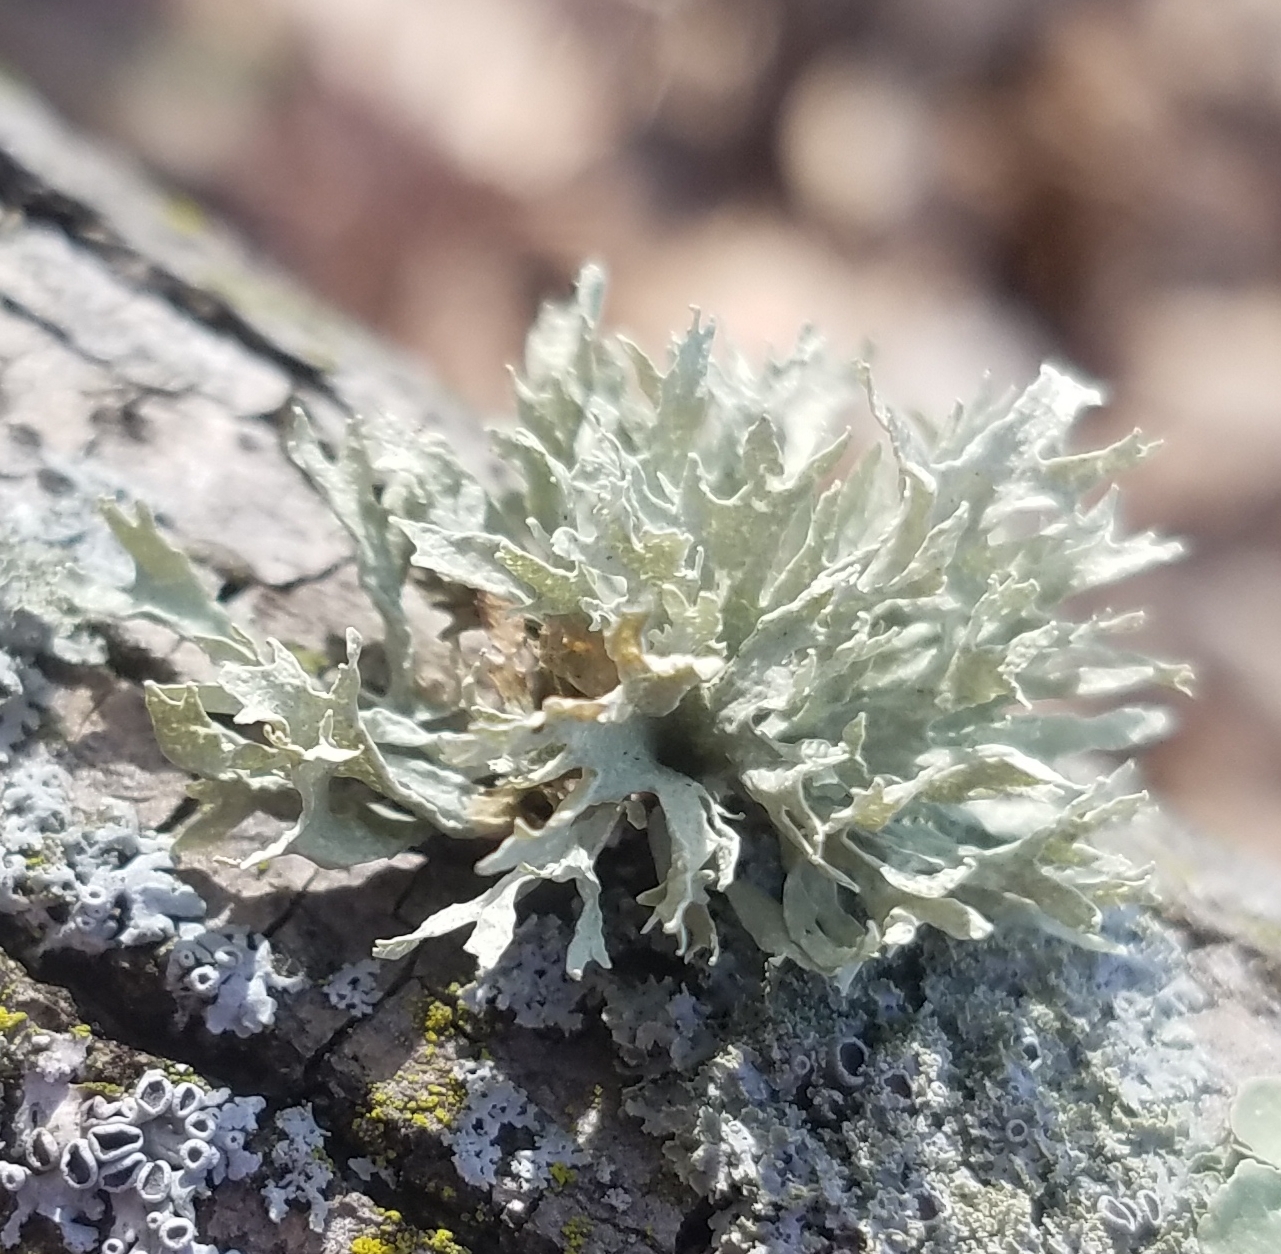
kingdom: Fungi
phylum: Ascomycota
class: Lecanoromycetes
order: Lecanorales
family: Ramalinaceae
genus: Ramalina
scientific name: Ramalina americana
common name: Sinewed bush lichen
